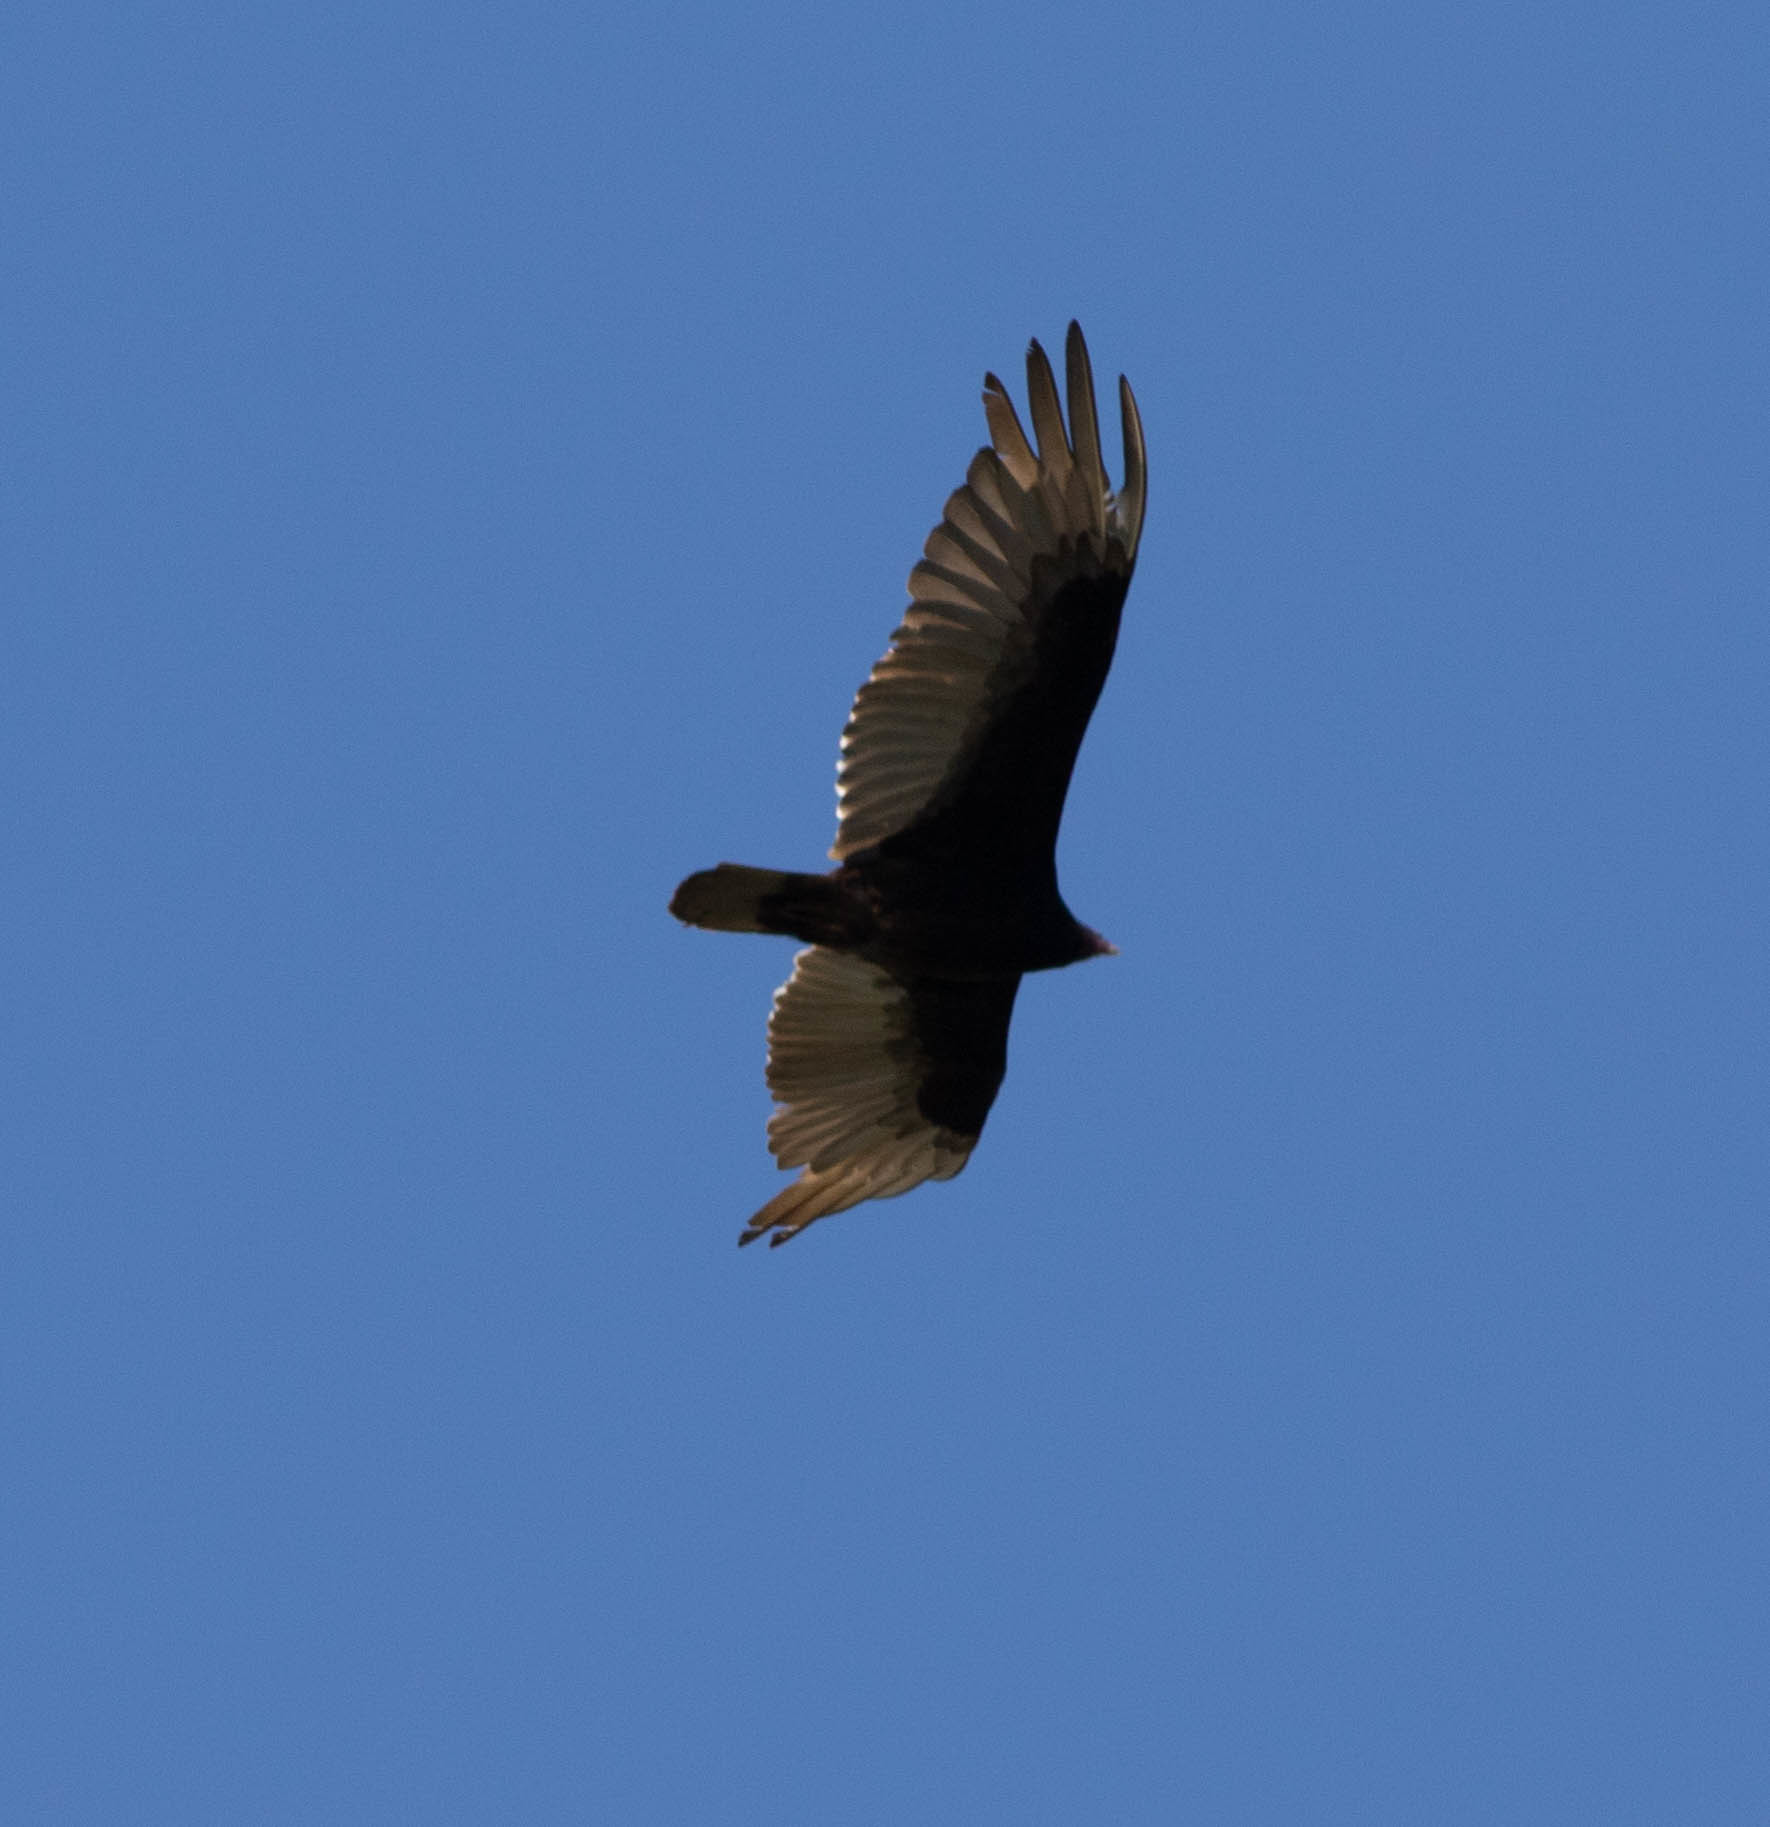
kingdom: Animalia
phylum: Chordata
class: Aves
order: Accipitriformes
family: Cathartidae
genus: Cathartes
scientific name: Cathartes aura
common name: Turkey vulture
